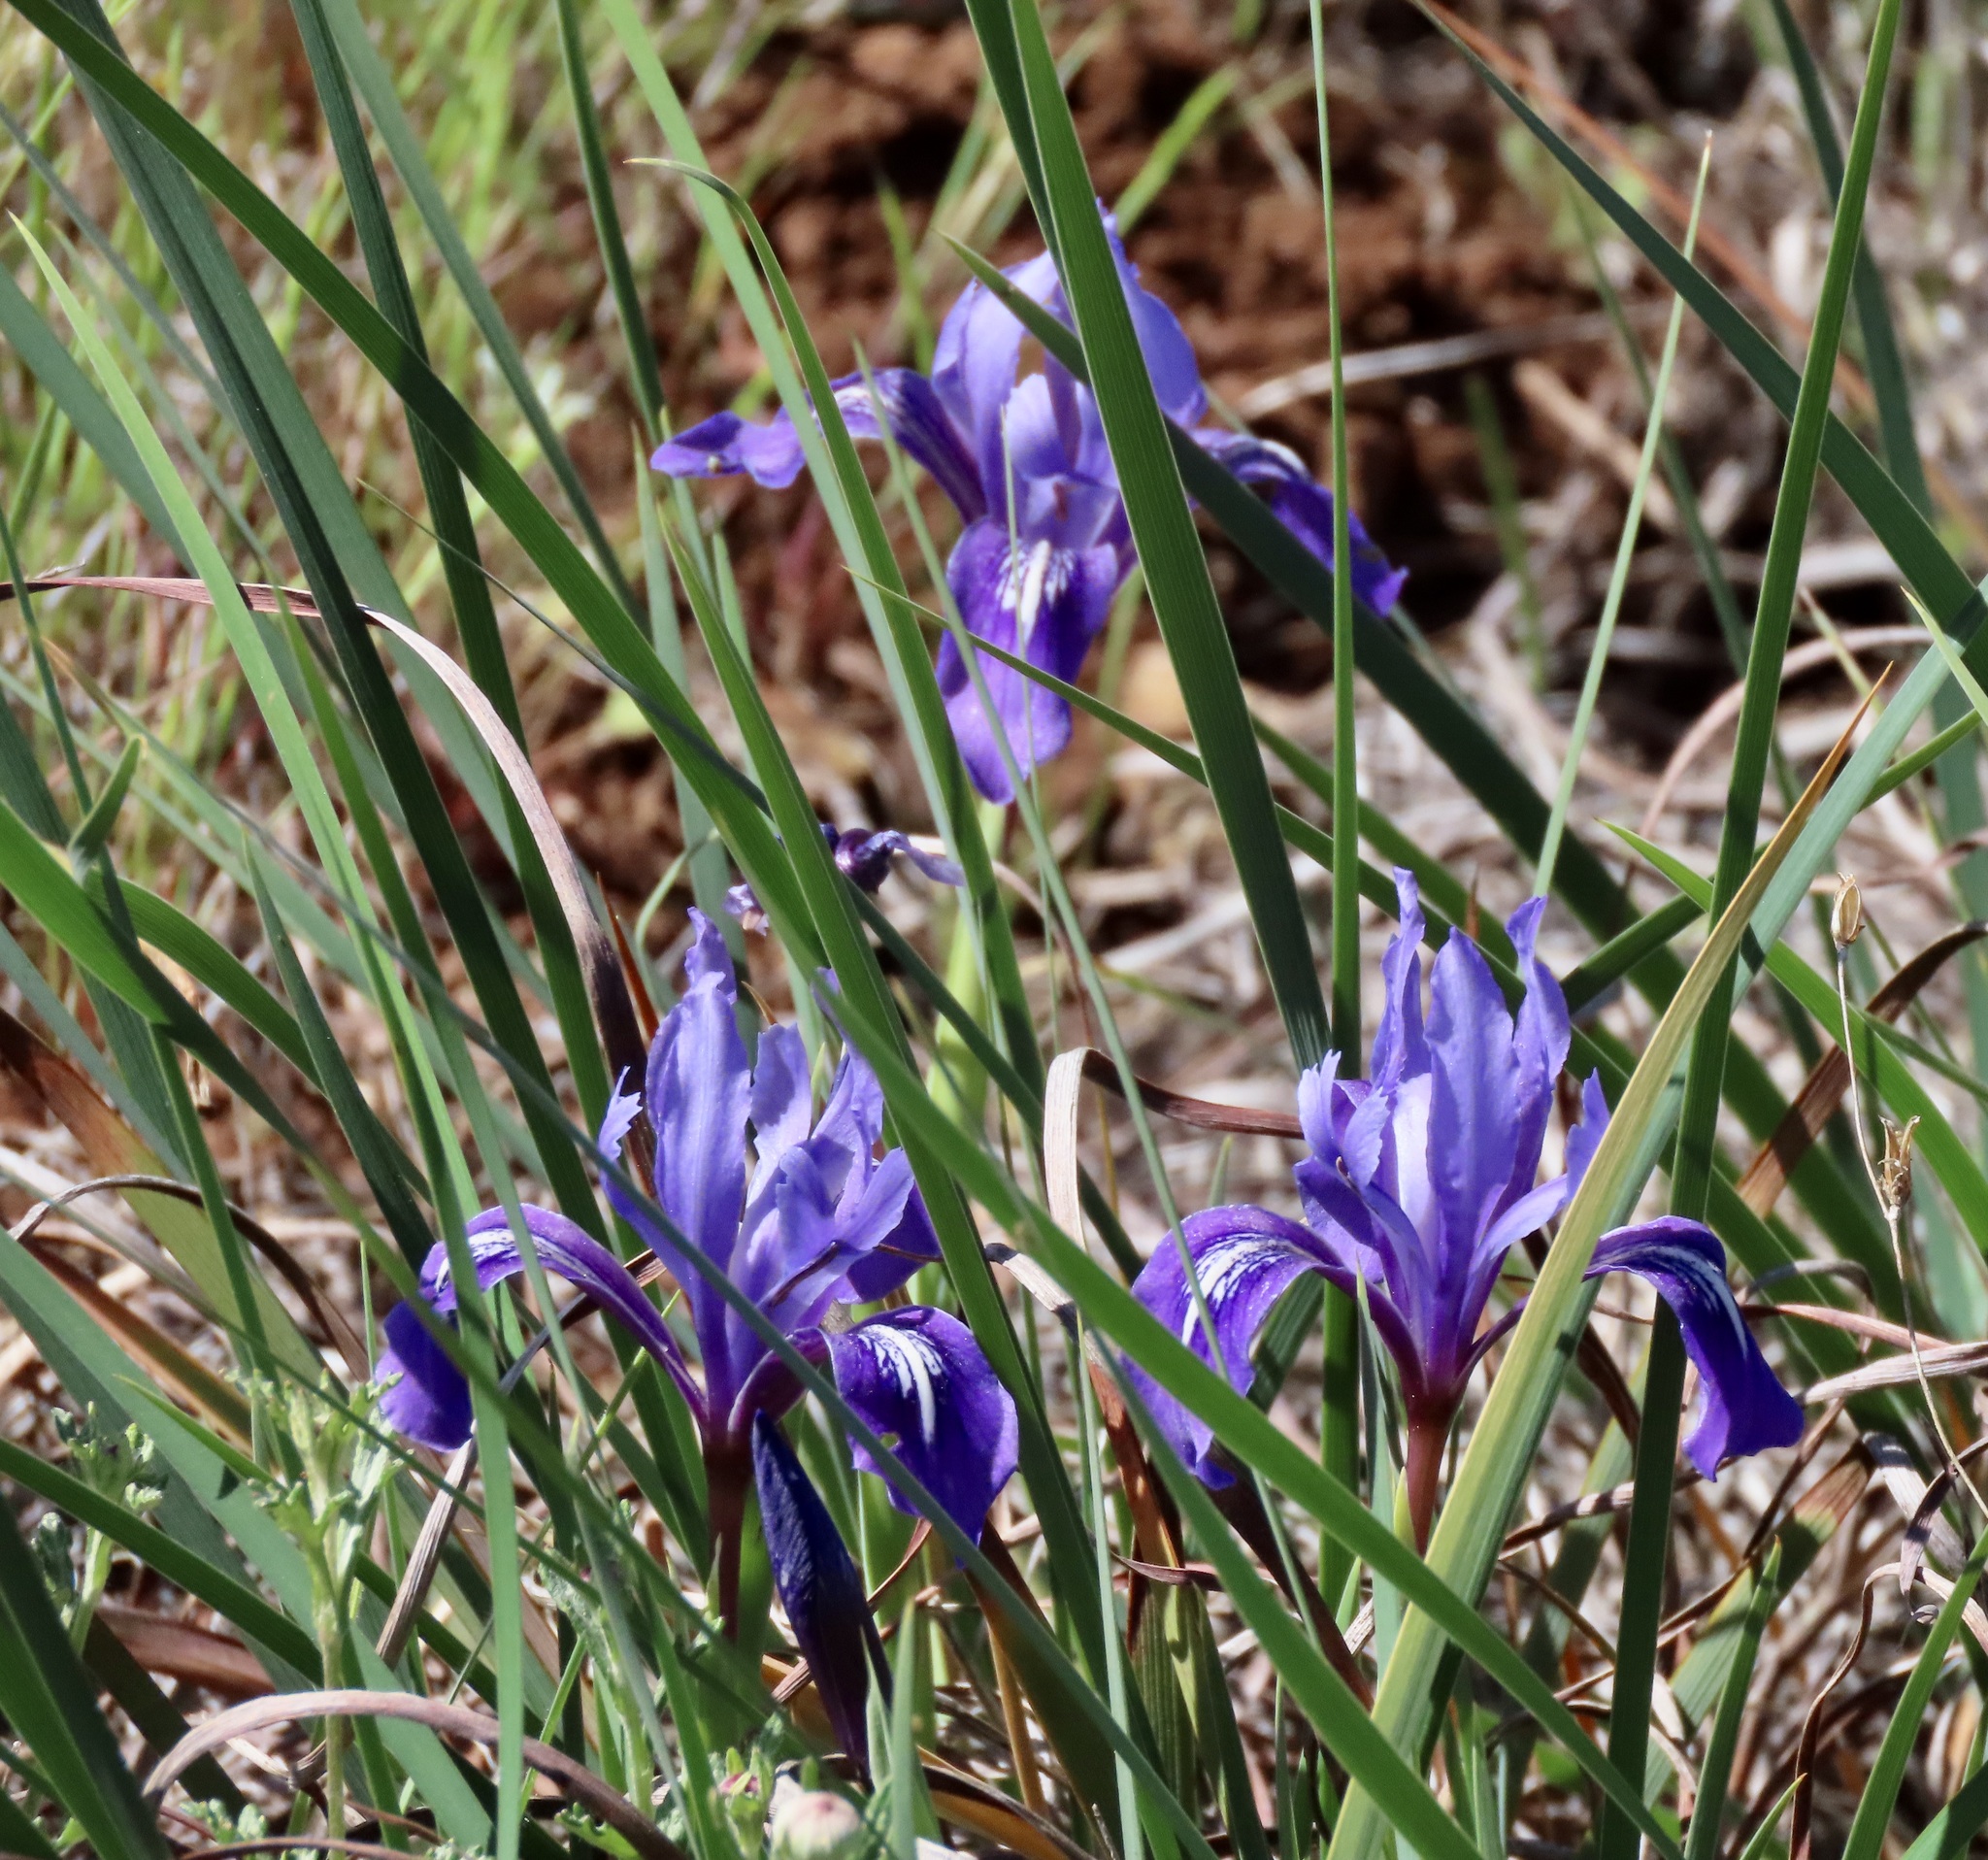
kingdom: Plantae
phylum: Tracheophyta
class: Liliopsida
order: Asparagales
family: Iridaceae
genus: Iris
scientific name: Iris macrosiphon
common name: Ground iris
